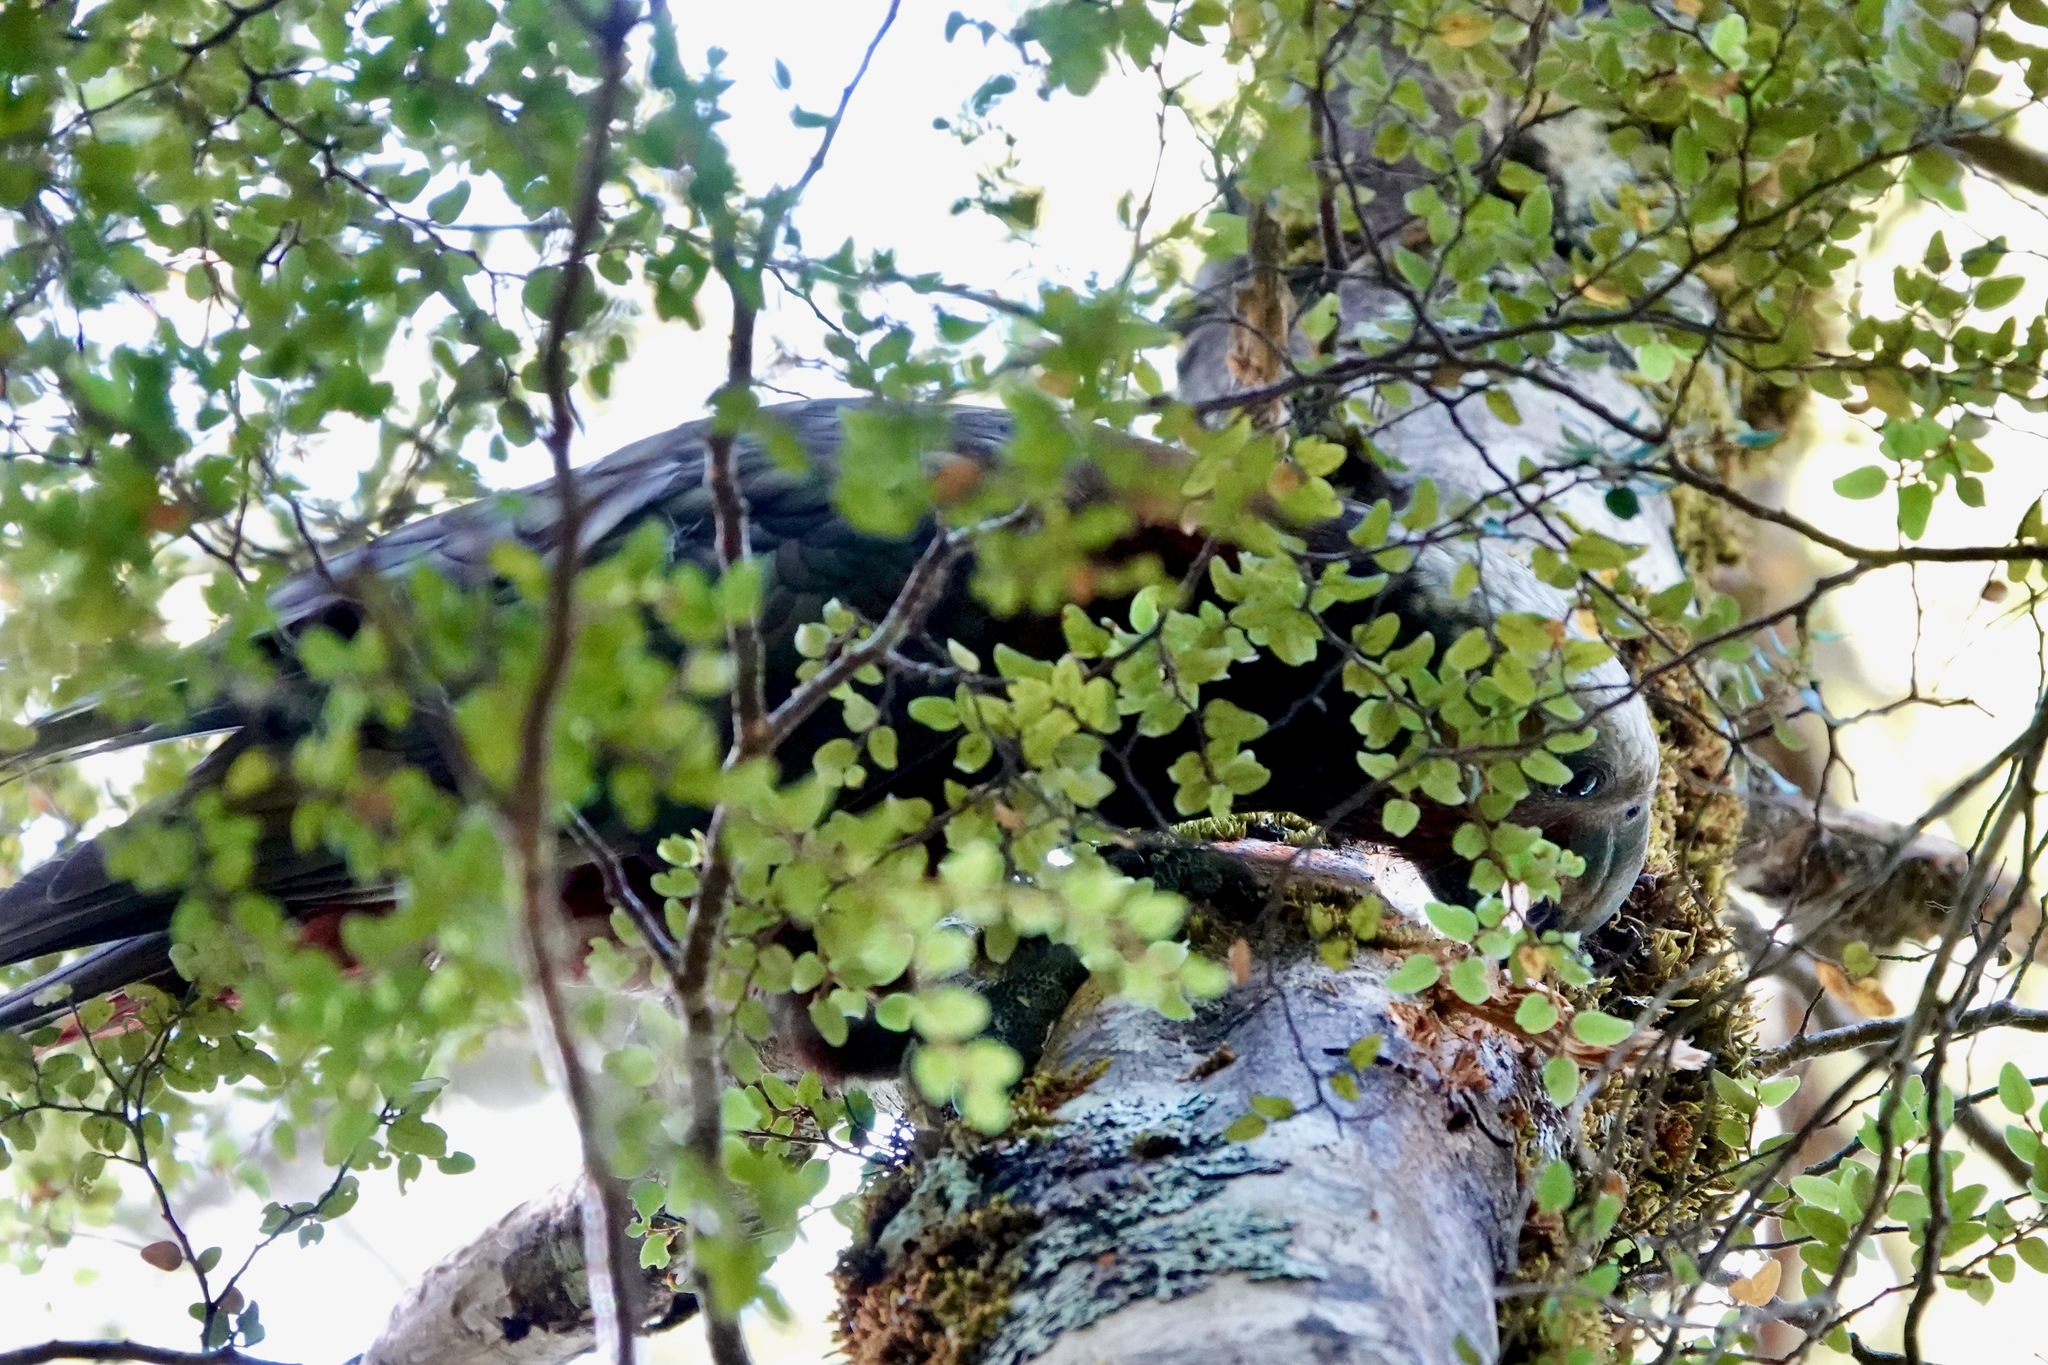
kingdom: Animalia
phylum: Chordata
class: Aves
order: Psittaciformes
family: Psittacidae
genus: Nestor
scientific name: Nestor meridionalis
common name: New zealand kaka
